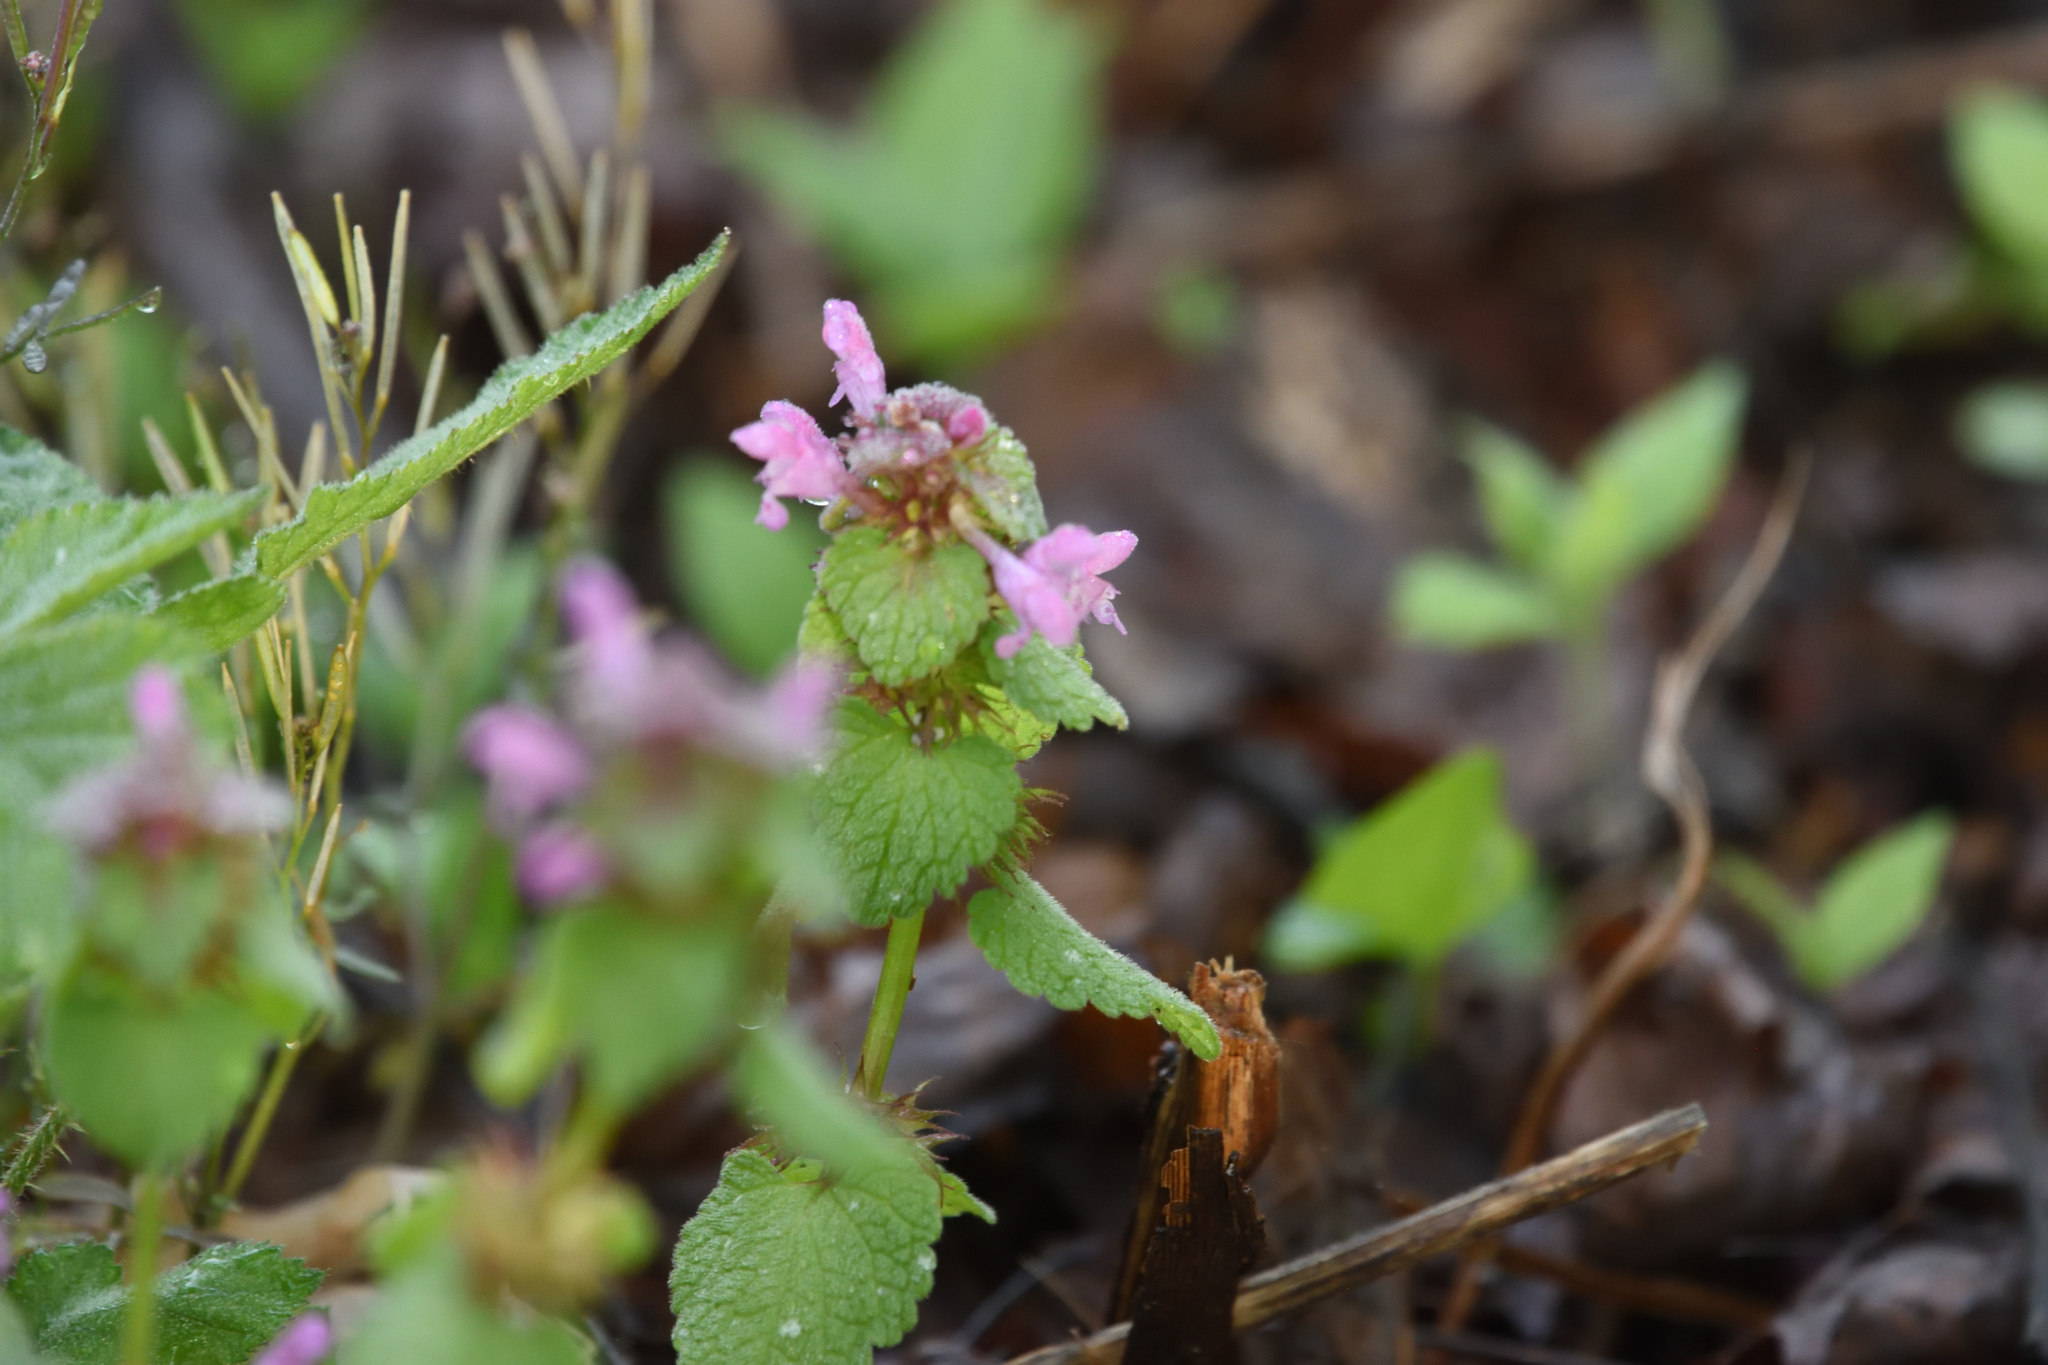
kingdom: Plantae
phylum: Tracheophyta
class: Magnoliopsida
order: Lamiales
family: Lamiaceae
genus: Lamium
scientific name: Lamium purpureum
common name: Red dead-nettle
